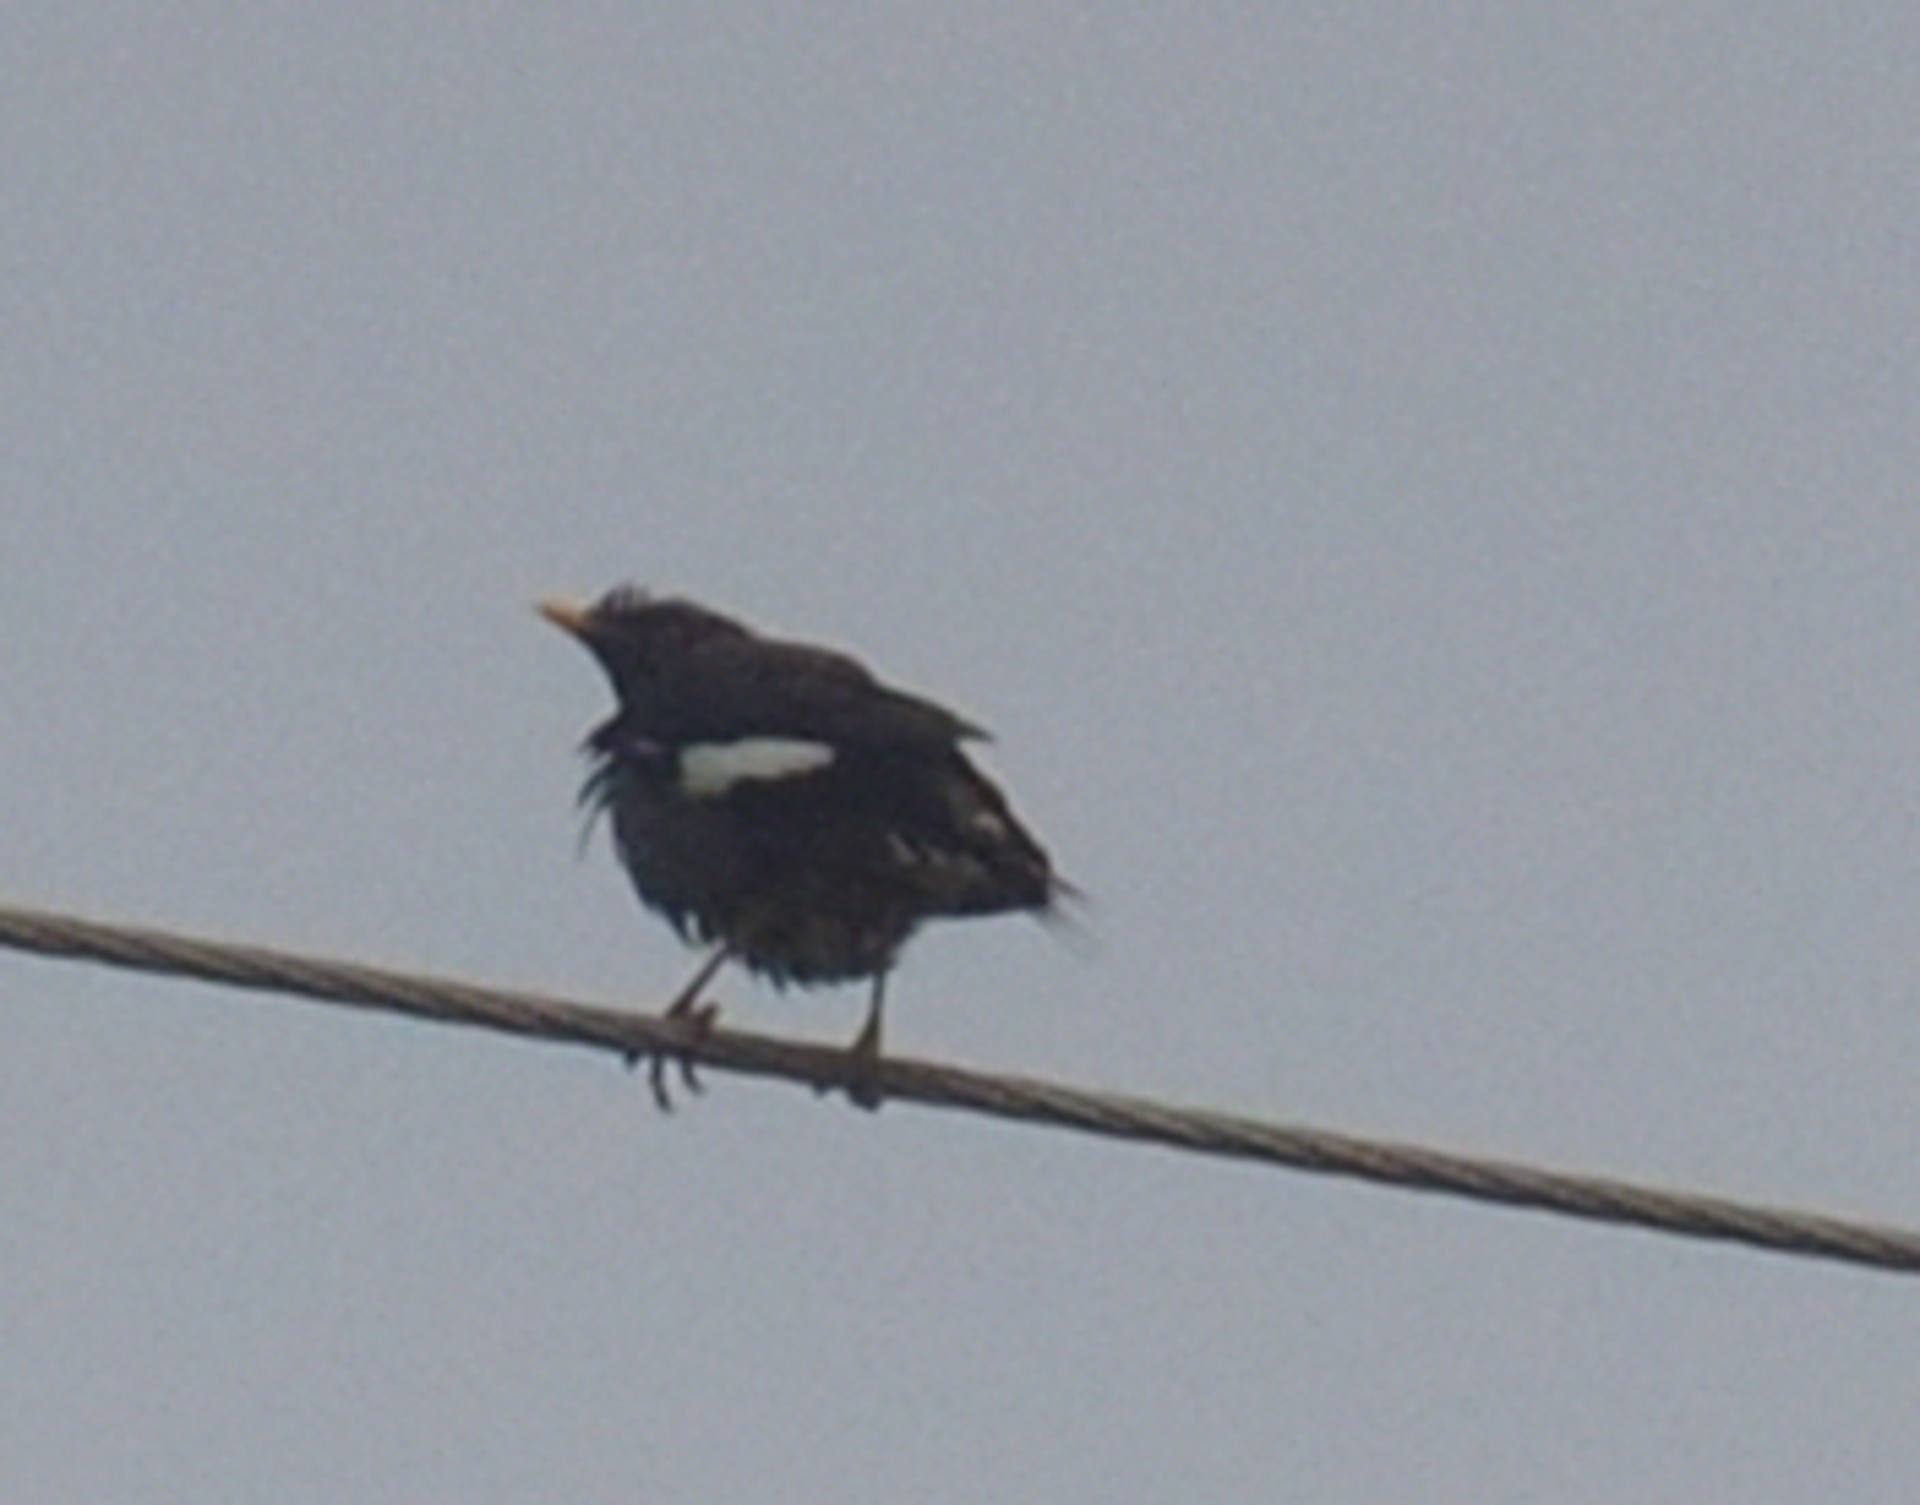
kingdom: Animalia
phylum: Chordata
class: Aves
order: Passeriformes
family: Sturnidae
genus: Acridotheres
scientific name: Acridotheres fuscus
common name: Jungle myna
